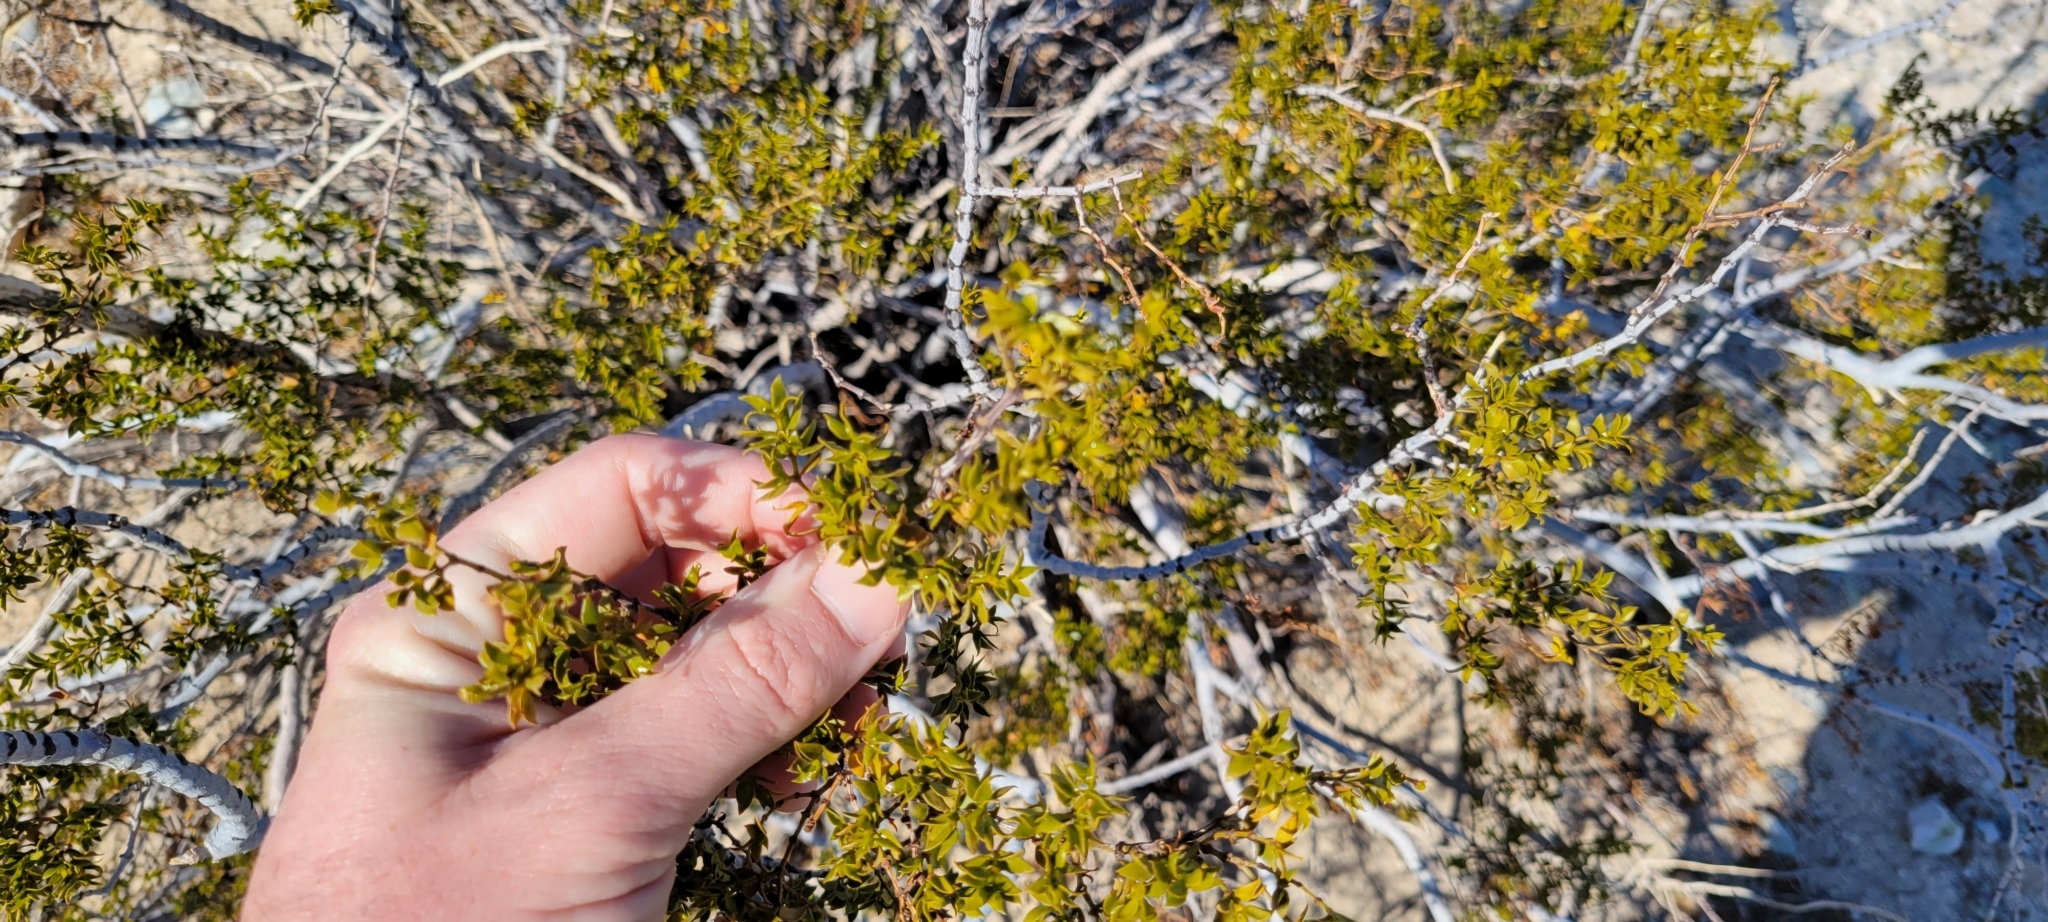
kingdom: Plantae
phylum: Tracheophyta
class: Magnoliopsida
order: Zygophyllales
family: Zygophyllaceae
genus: Larrea
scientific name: Larrea tridentata
